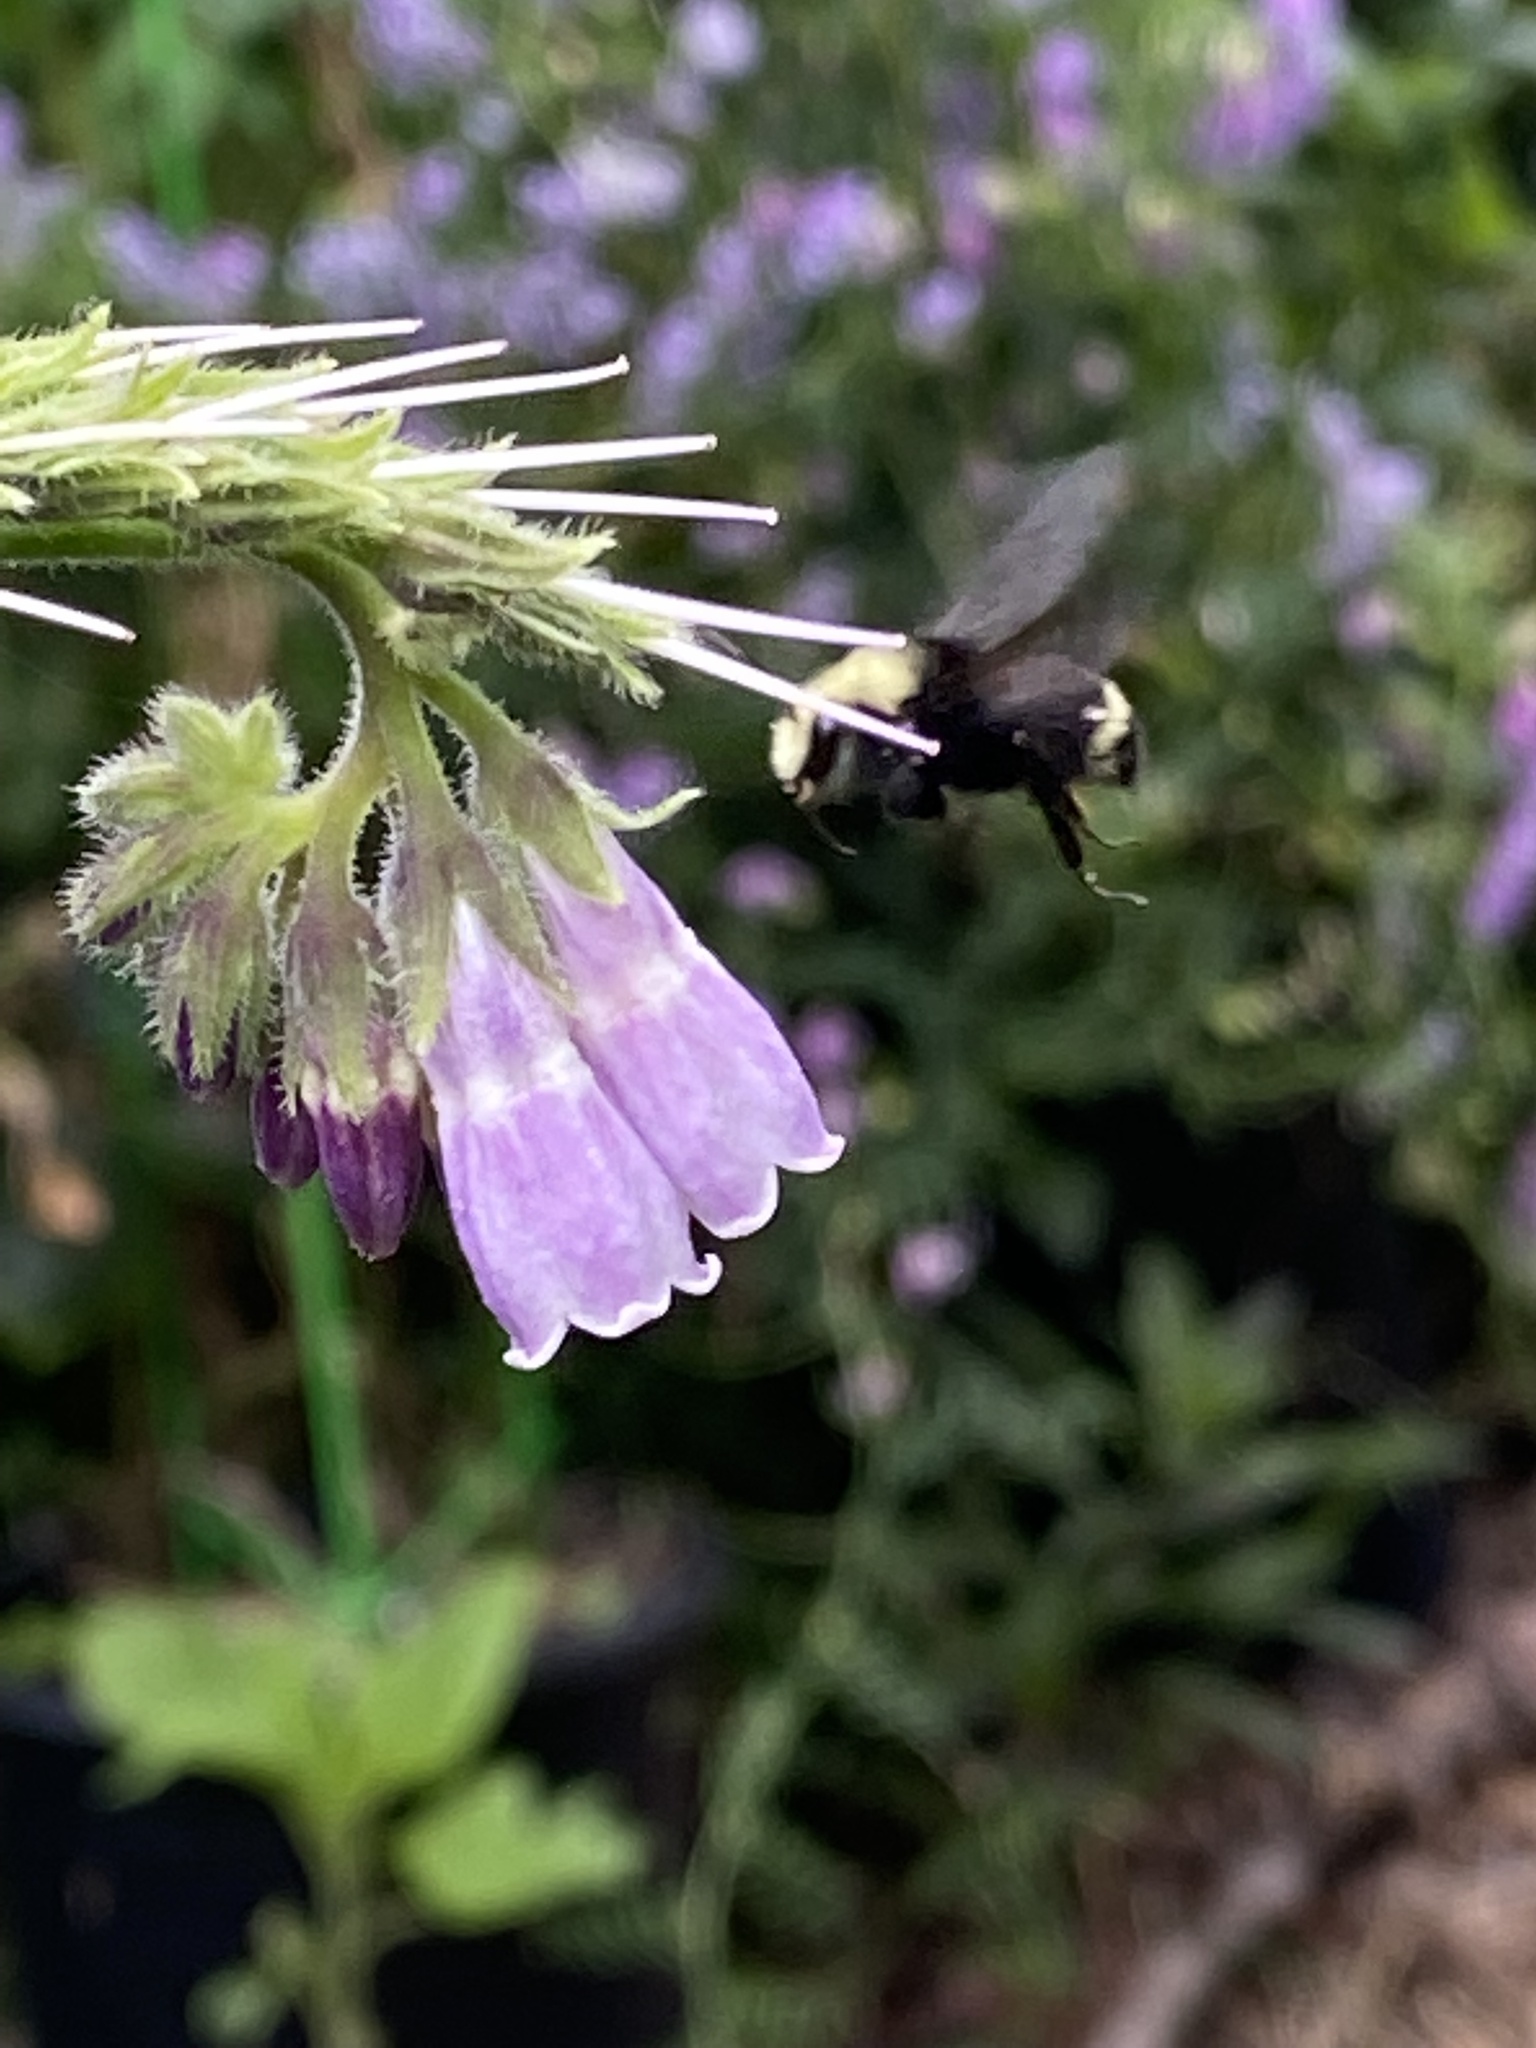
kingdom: Animalia
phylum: Arthropoda
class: Insecta
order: Hymenoptera
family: Apidae
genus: Bombus
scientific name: Bombus vosnesenskii
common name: Vosnesensky bumble bee
